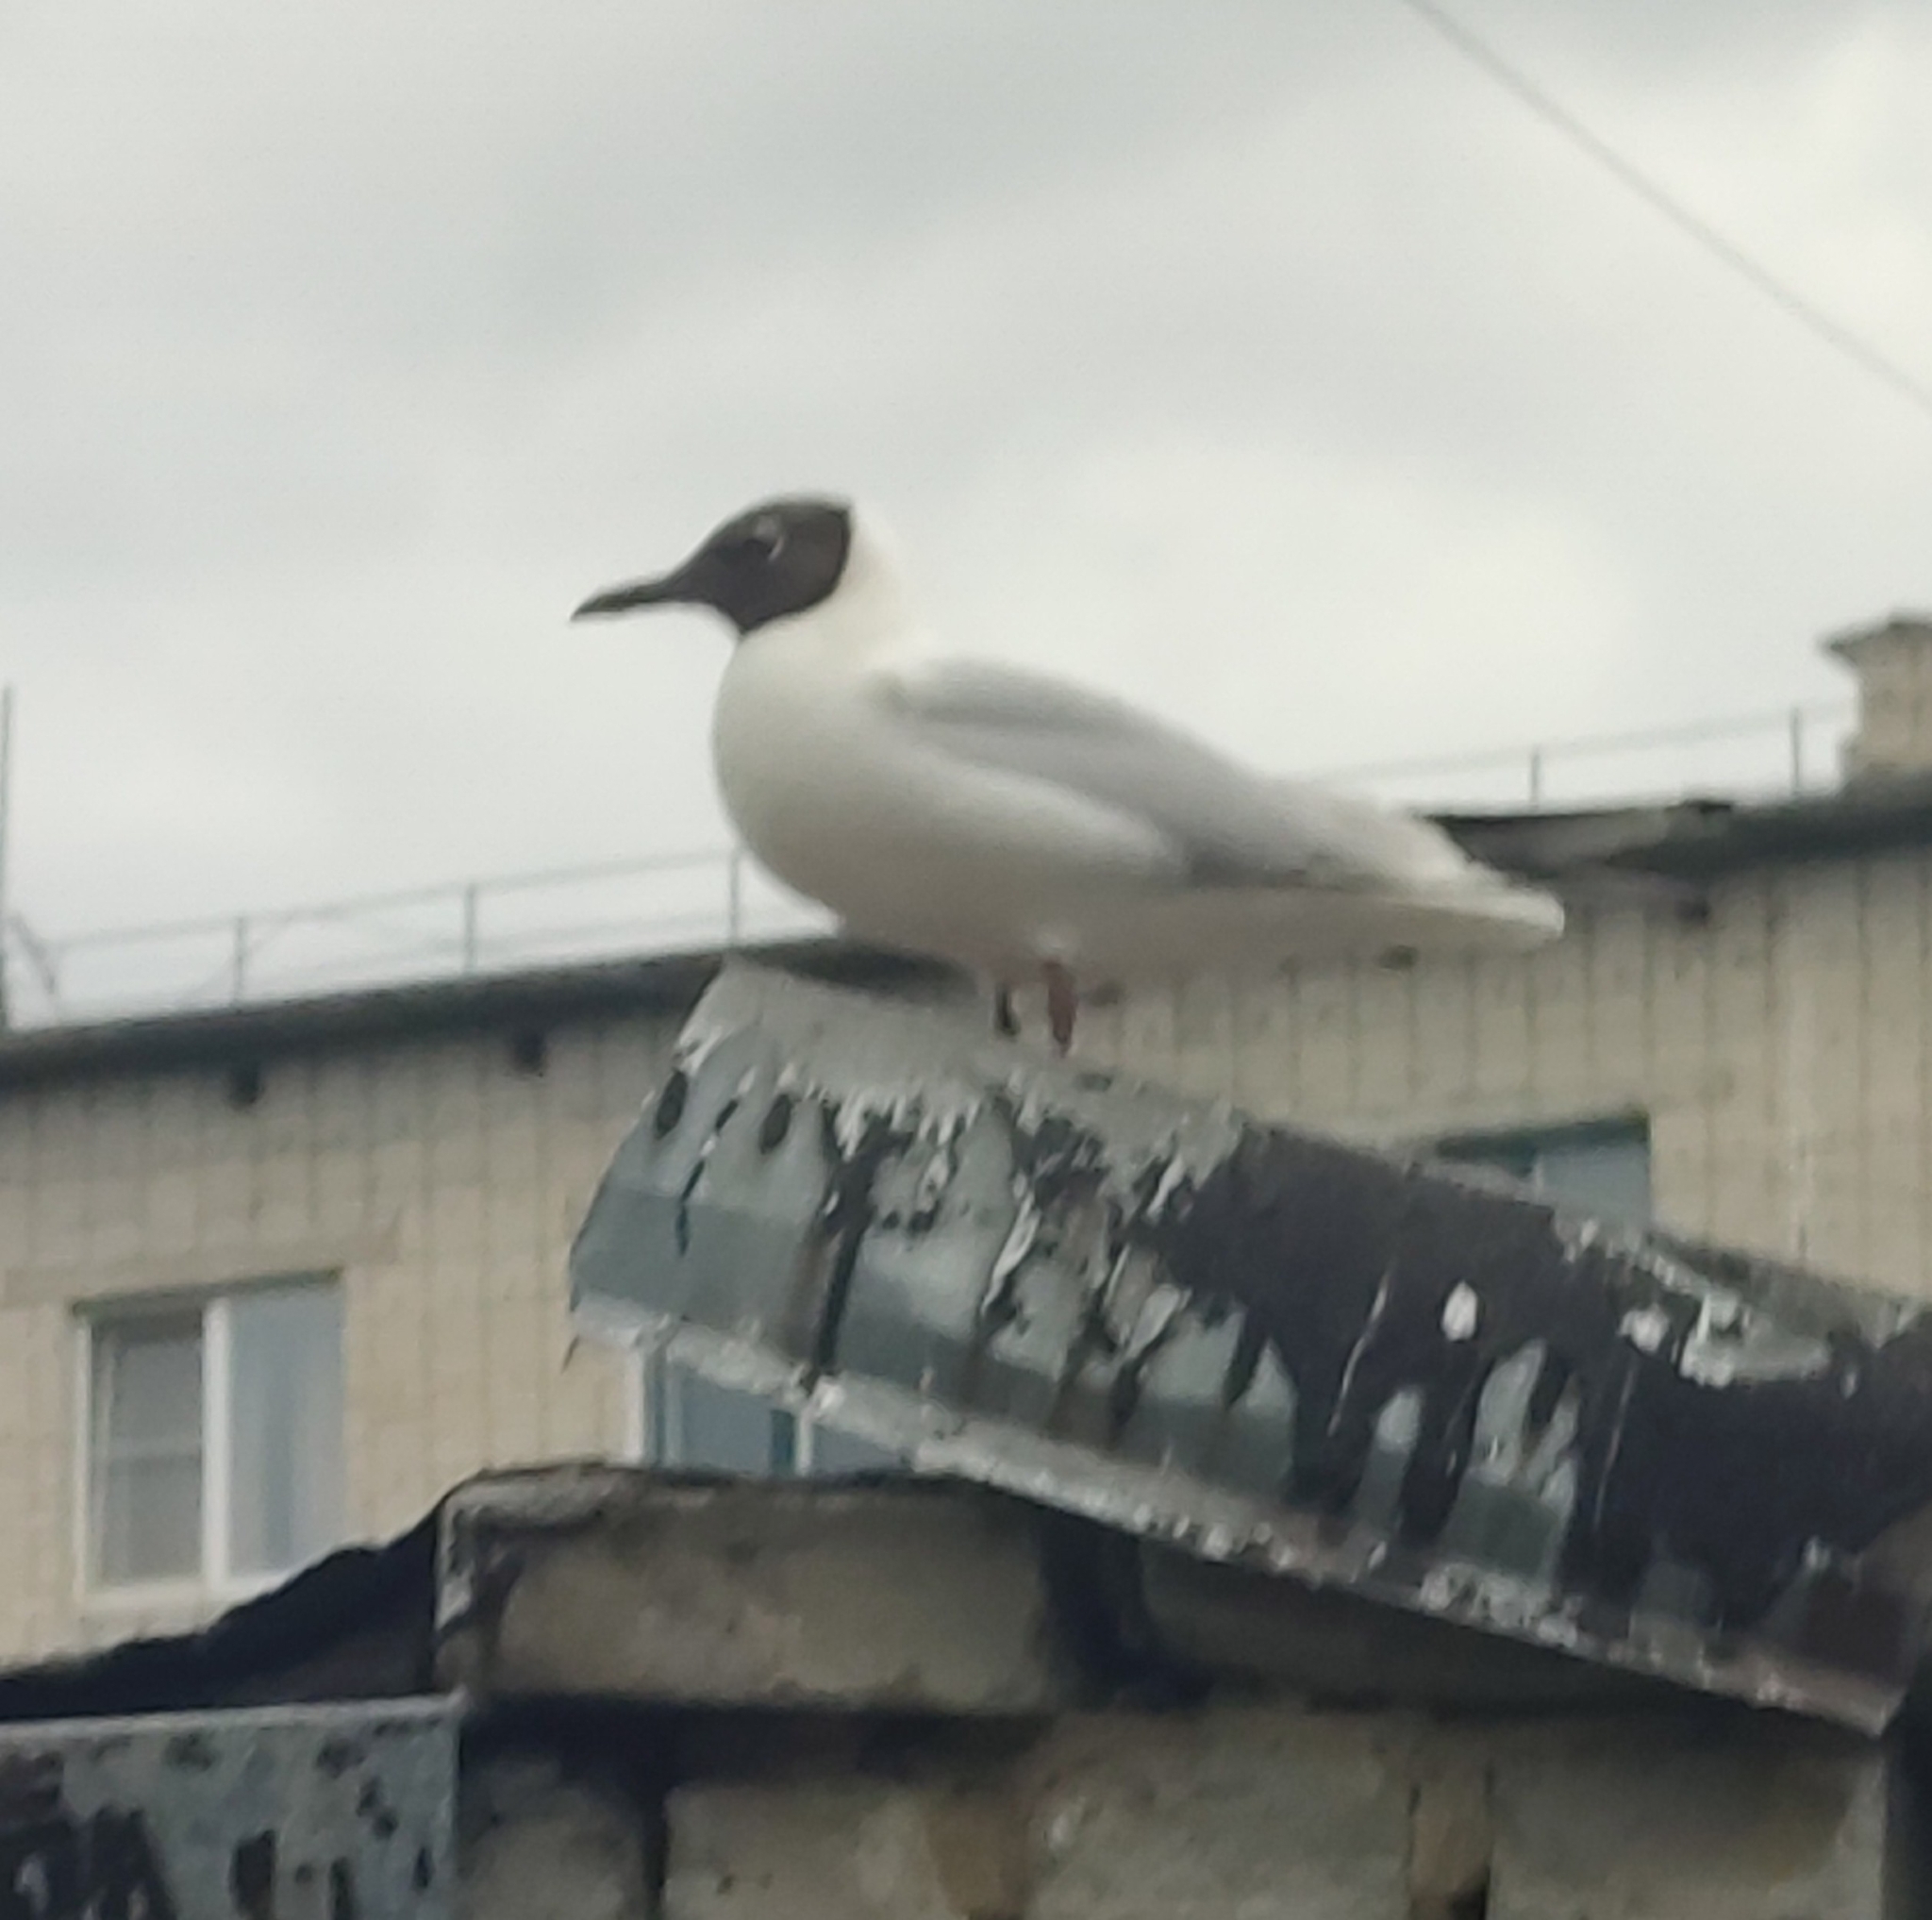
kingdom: Animalia
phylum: Chordata
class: Aves
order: Charadriiformes
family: Laridae
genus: Chroicocephalus
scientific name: Chroicocephalus ridibundus
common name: Black-headed gull
